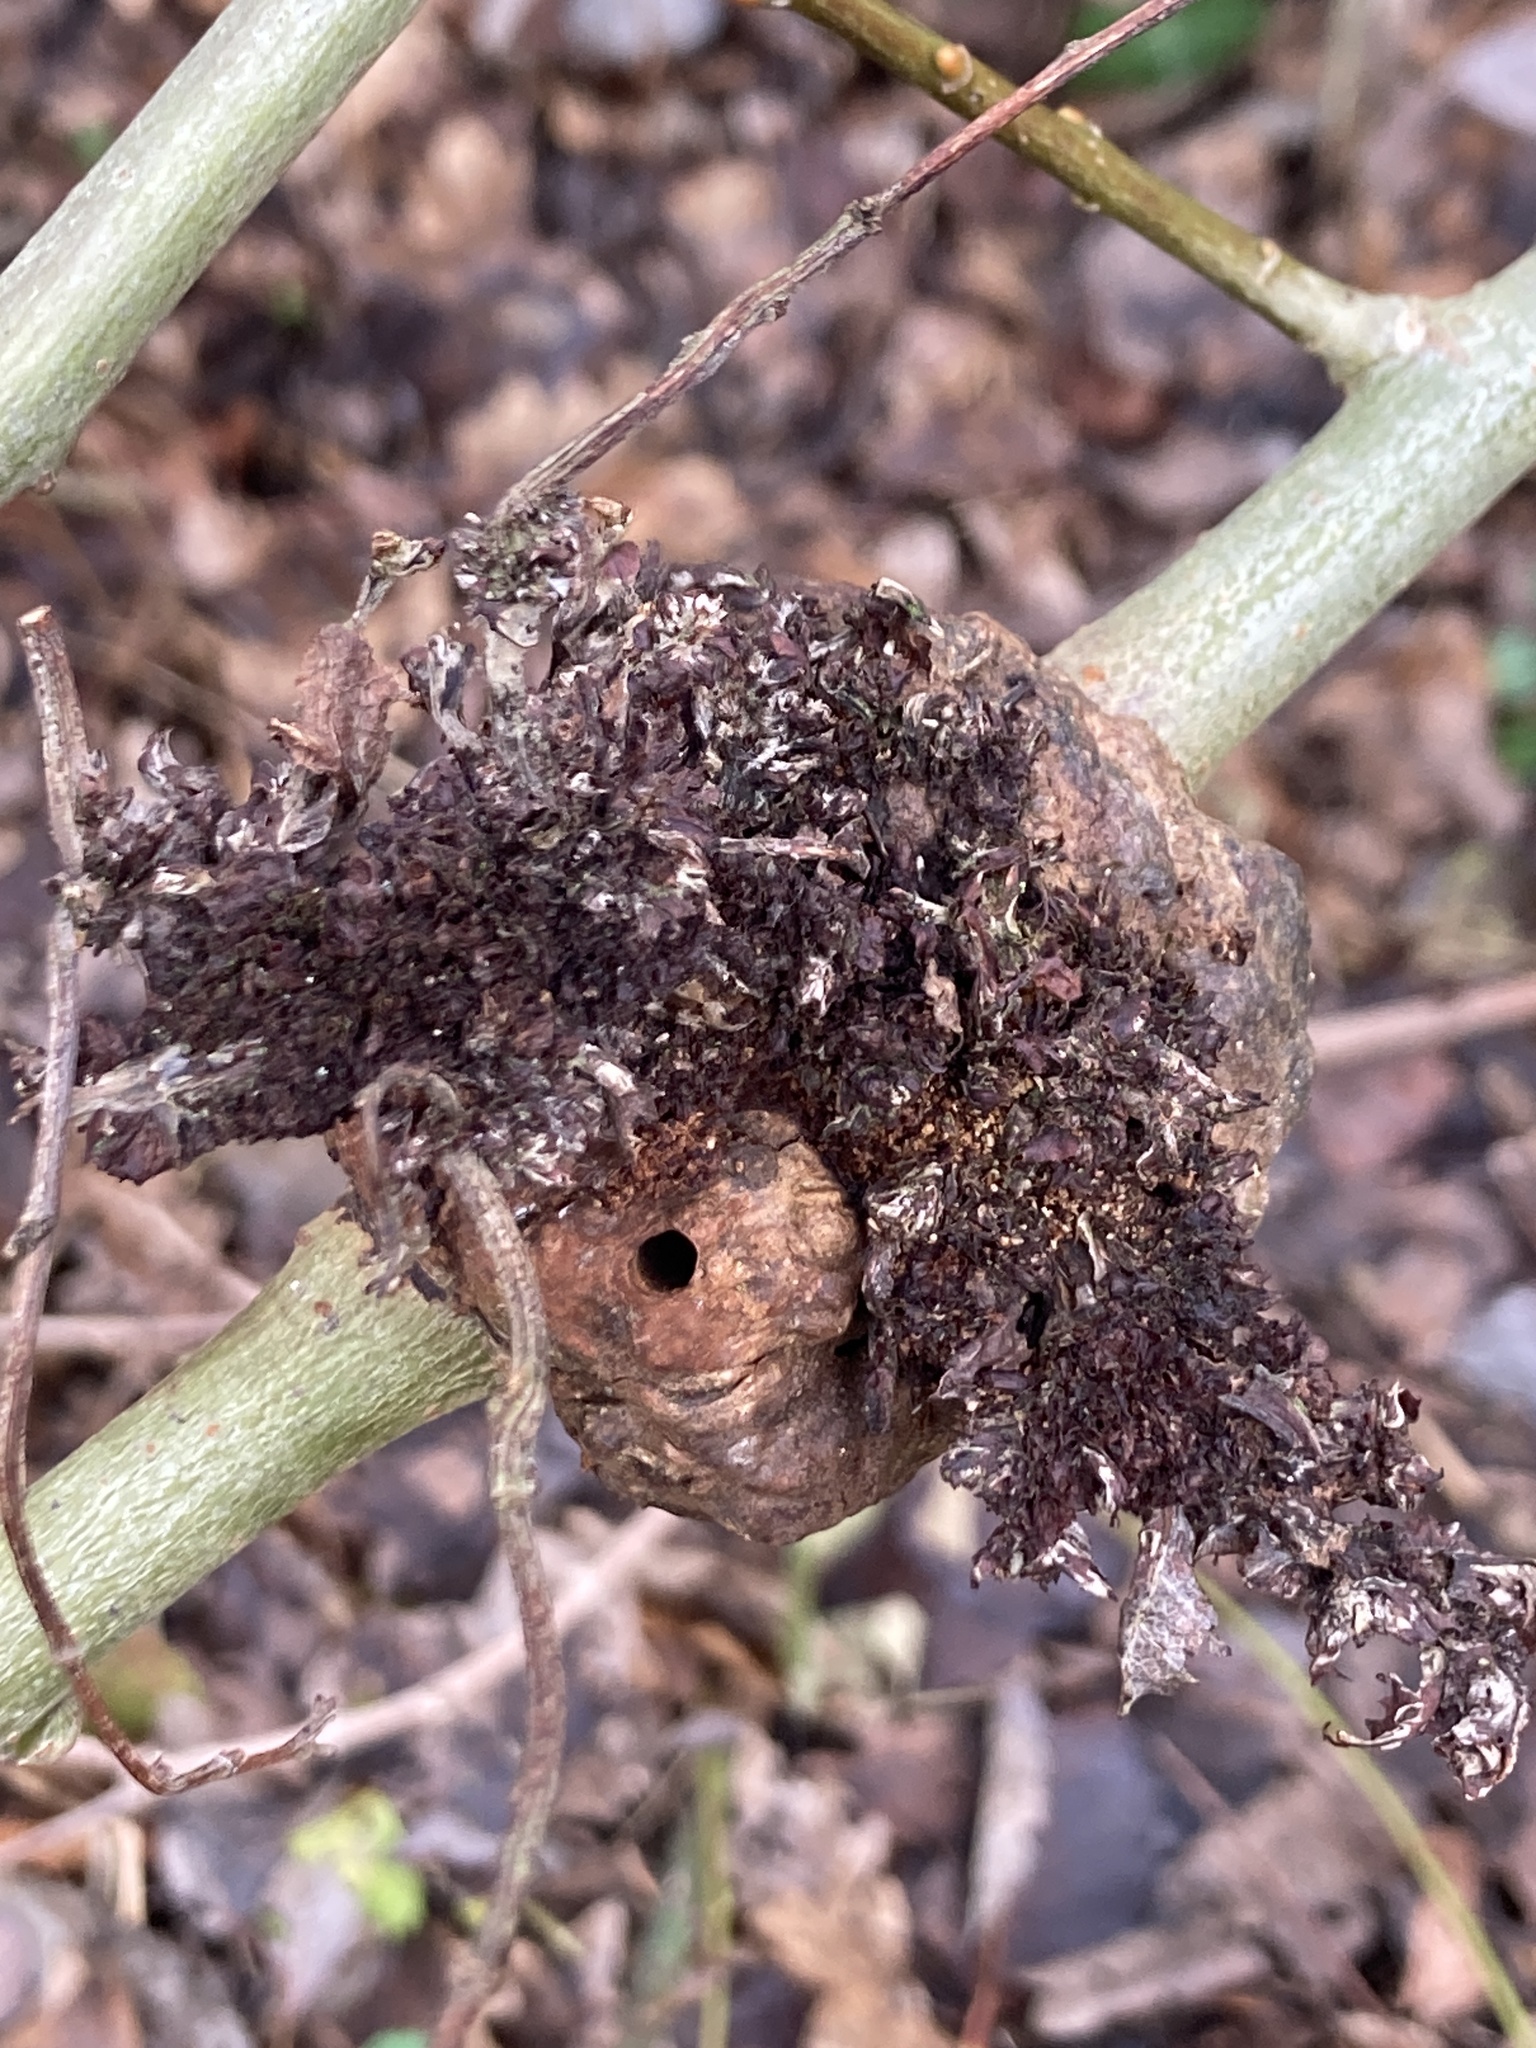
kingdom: Animalia
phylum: Arthropoda
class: Insecta
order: Hymenoptera
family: Cynipidae
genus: Diplolepis
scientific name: Diplolepis rosae
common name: Bedeguar gall
